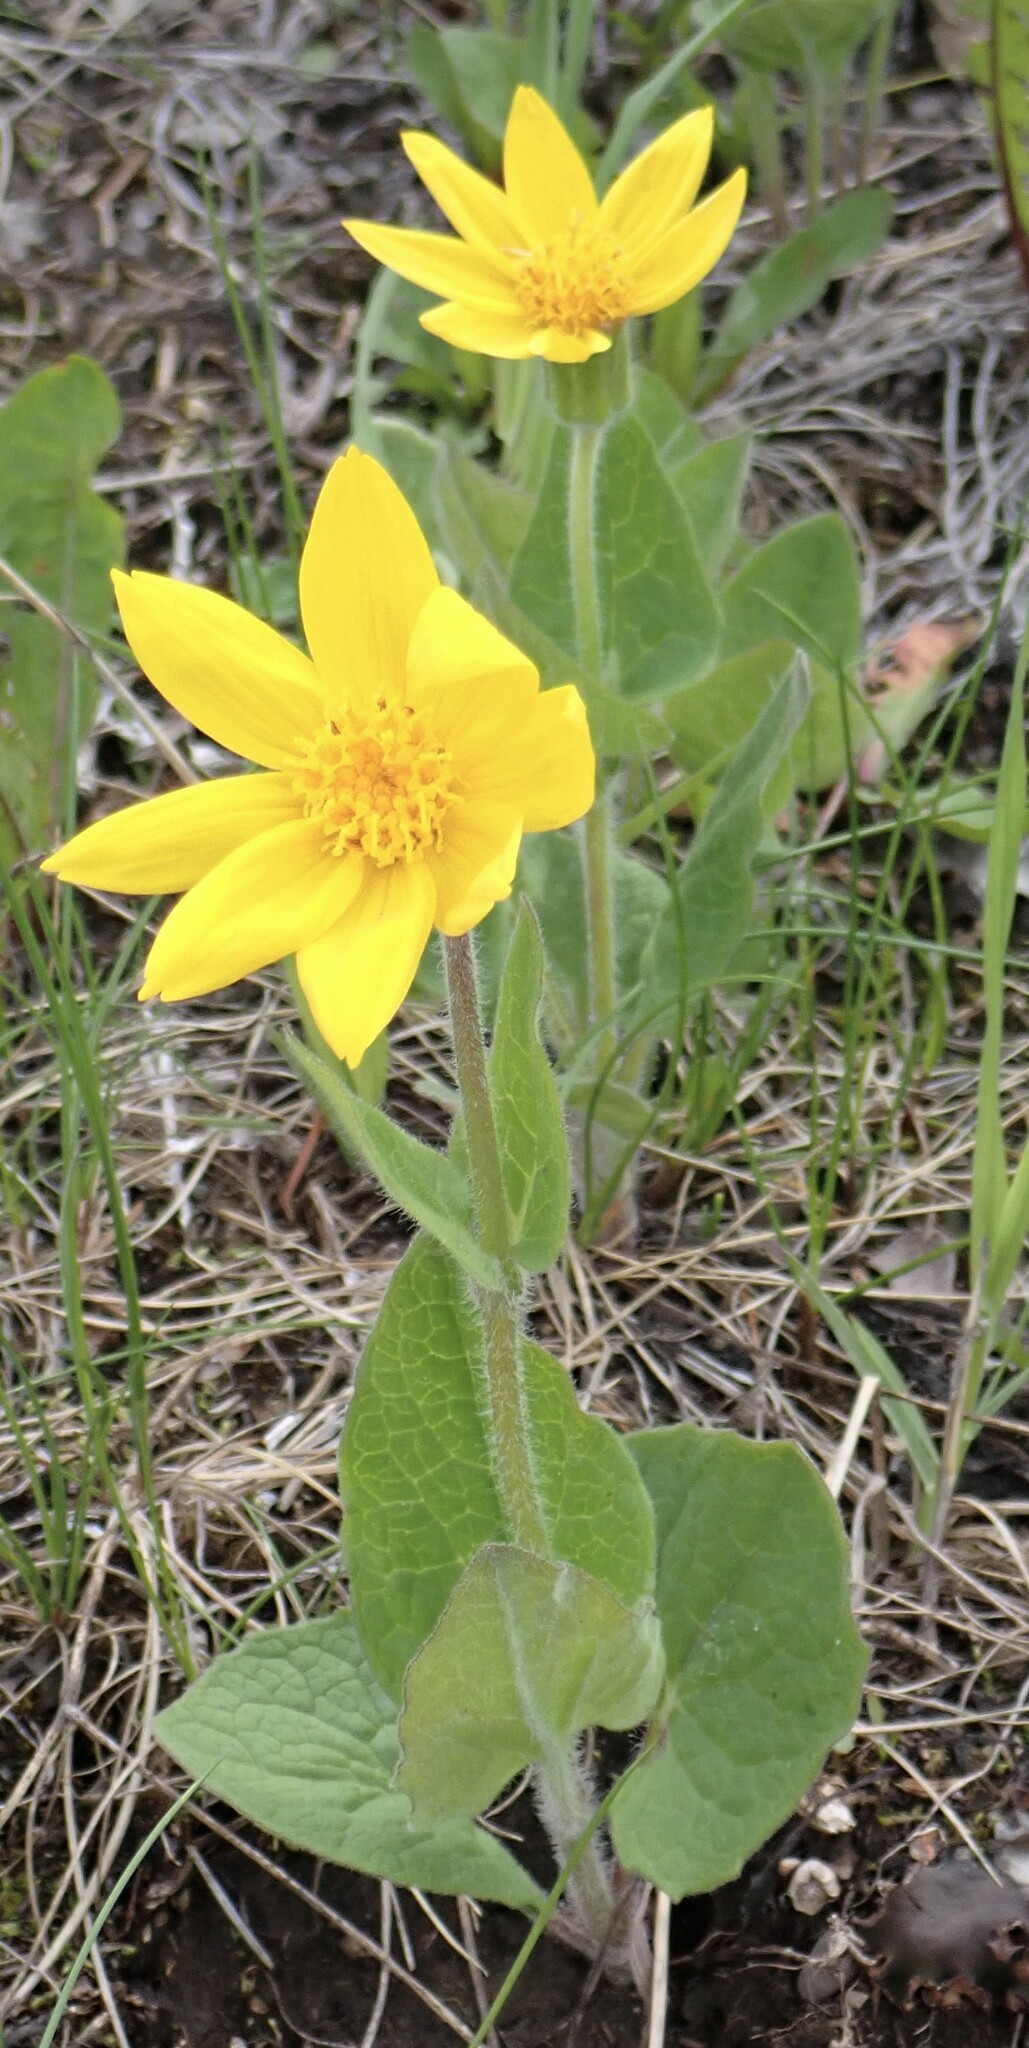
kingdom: Plantae
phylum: Tracheophyta
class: Magnoliopsida
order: Asterales
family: Asteraceae
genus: Arnica
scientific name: Arnica cordifolia
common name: Heart-leaf arnica
